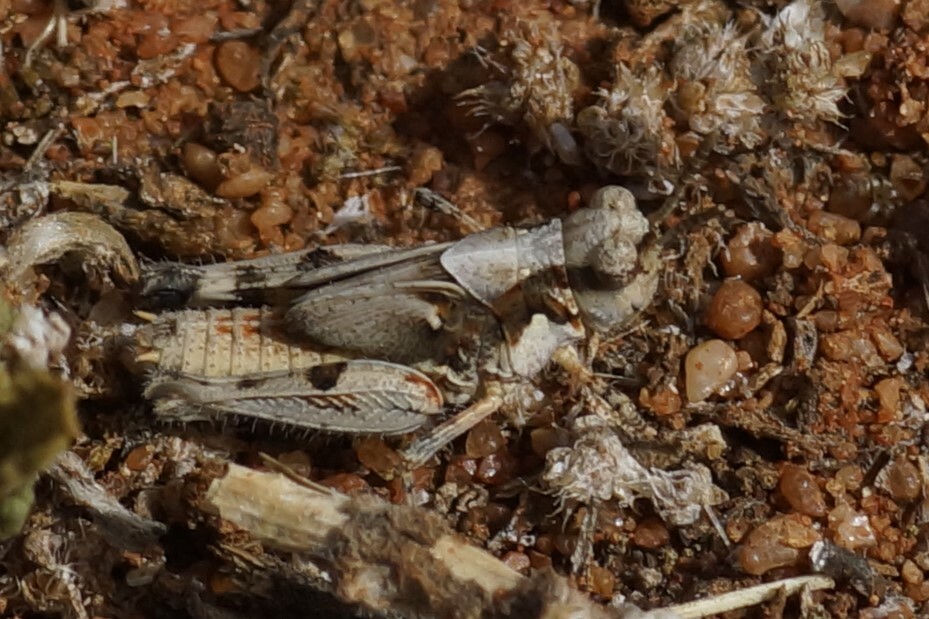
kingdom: Animalia
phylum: Arthropoda
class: Insecta
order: Orthoptera
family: Acrididae
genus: Pycnostictus
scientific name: Pycnostictus seriatus
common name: Common bandwing
